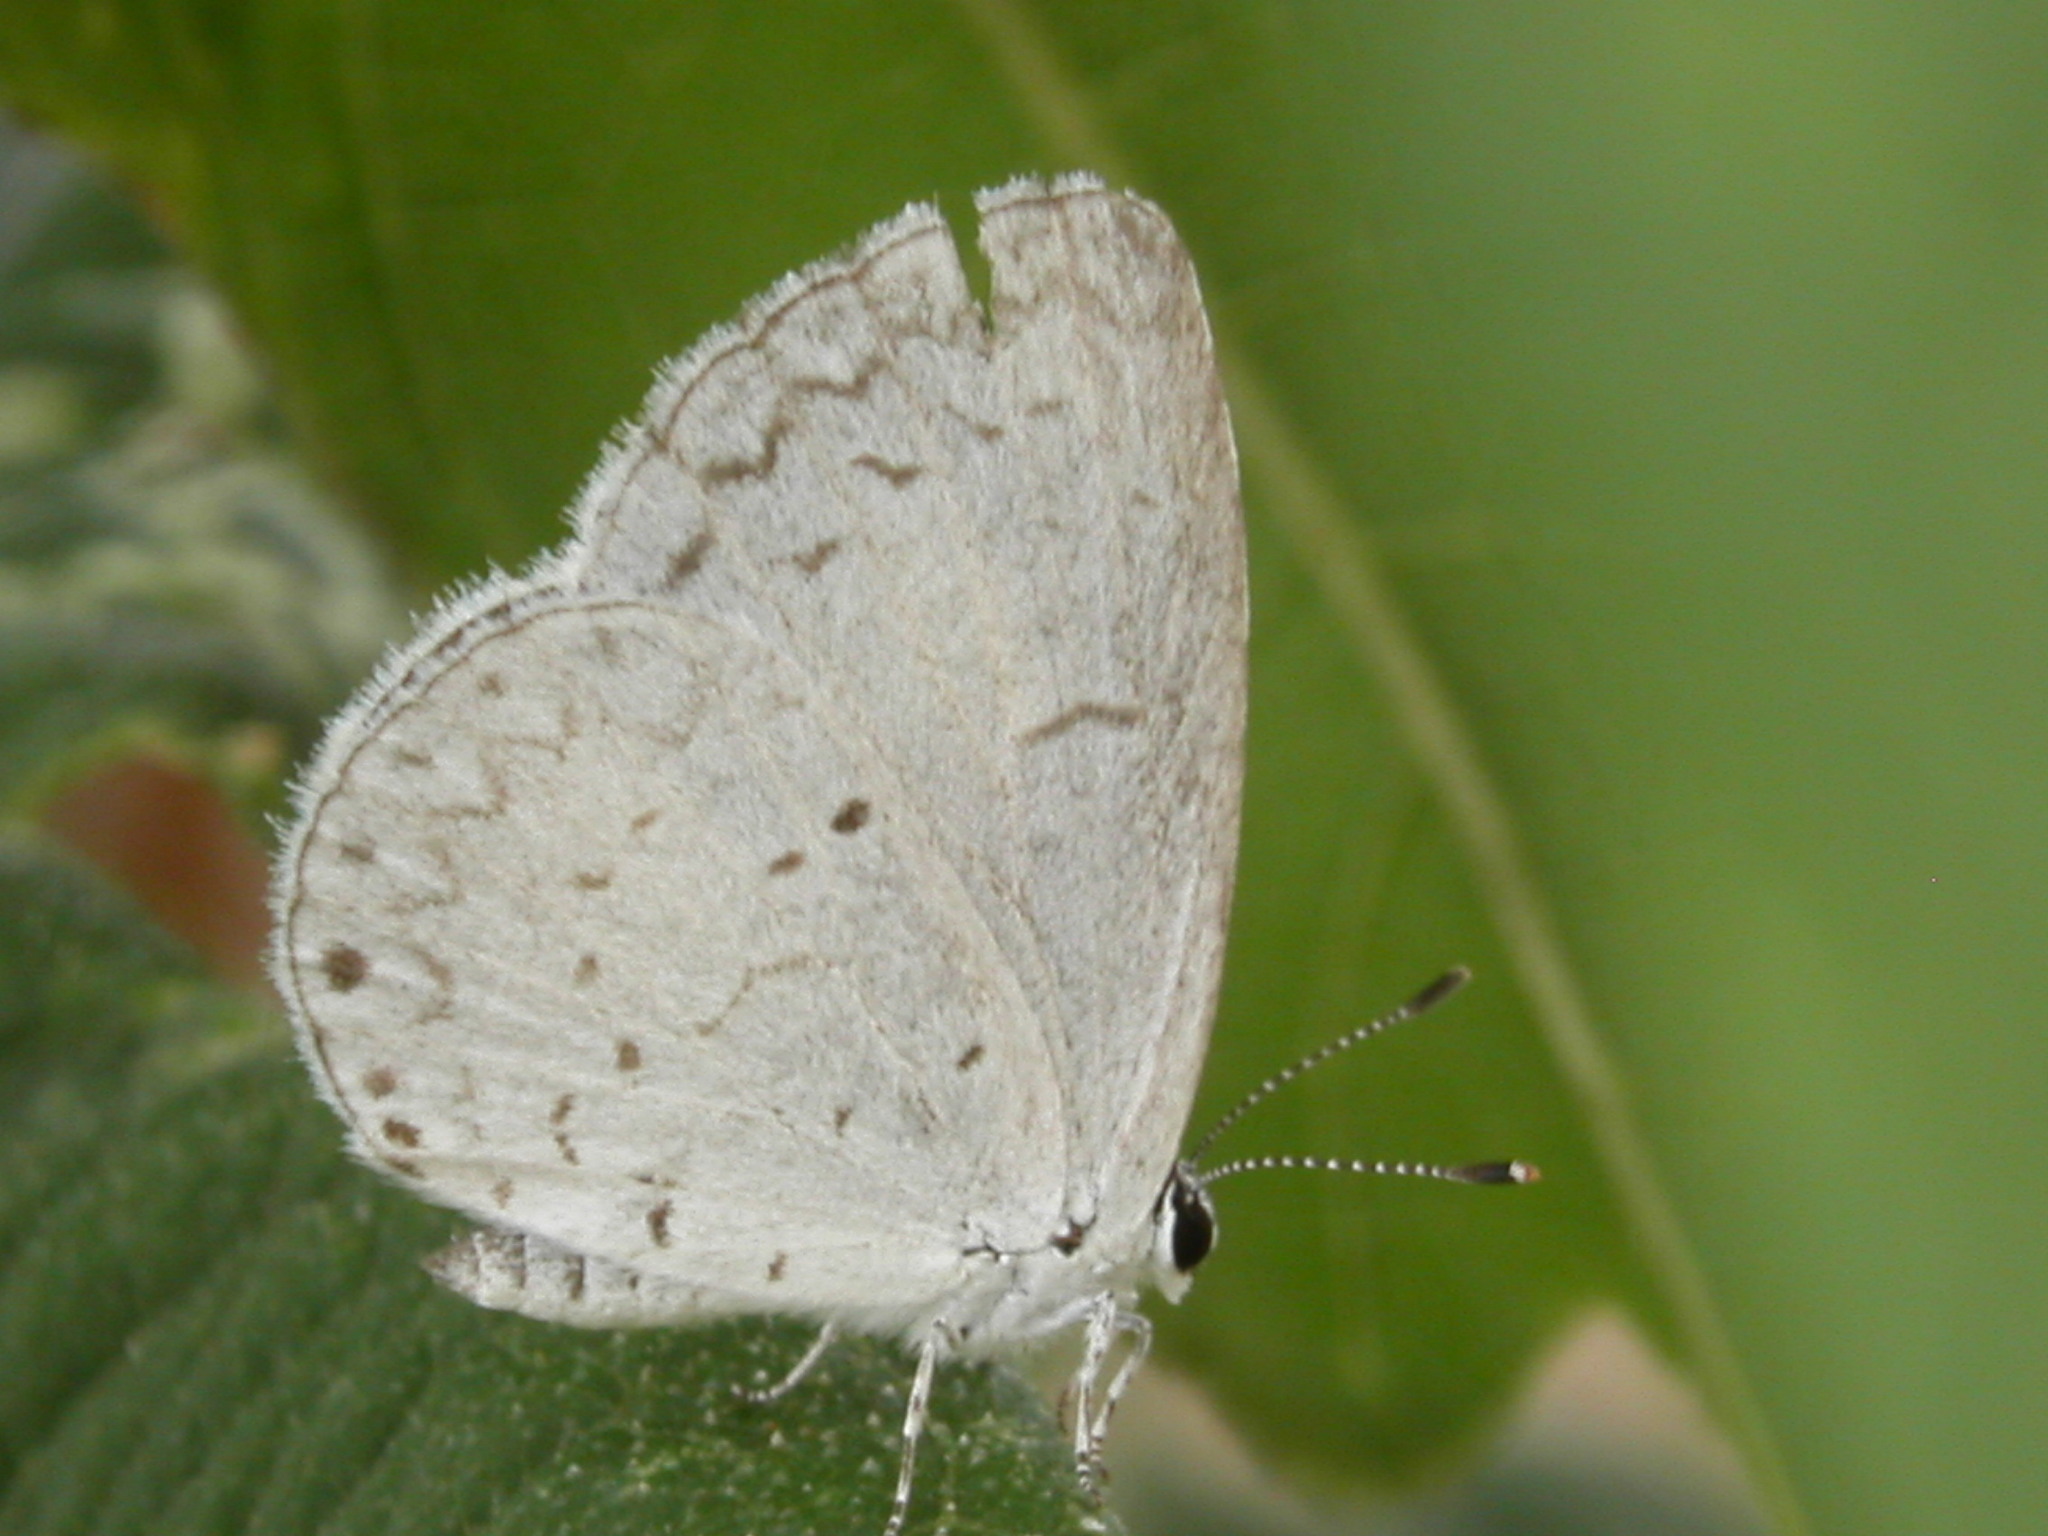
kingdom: Animalia
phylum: Arthropoda
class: Insecta
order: Lepidoptera
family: Lycaenidae
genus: Cyaniris
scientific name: Cyaniris neglecta
